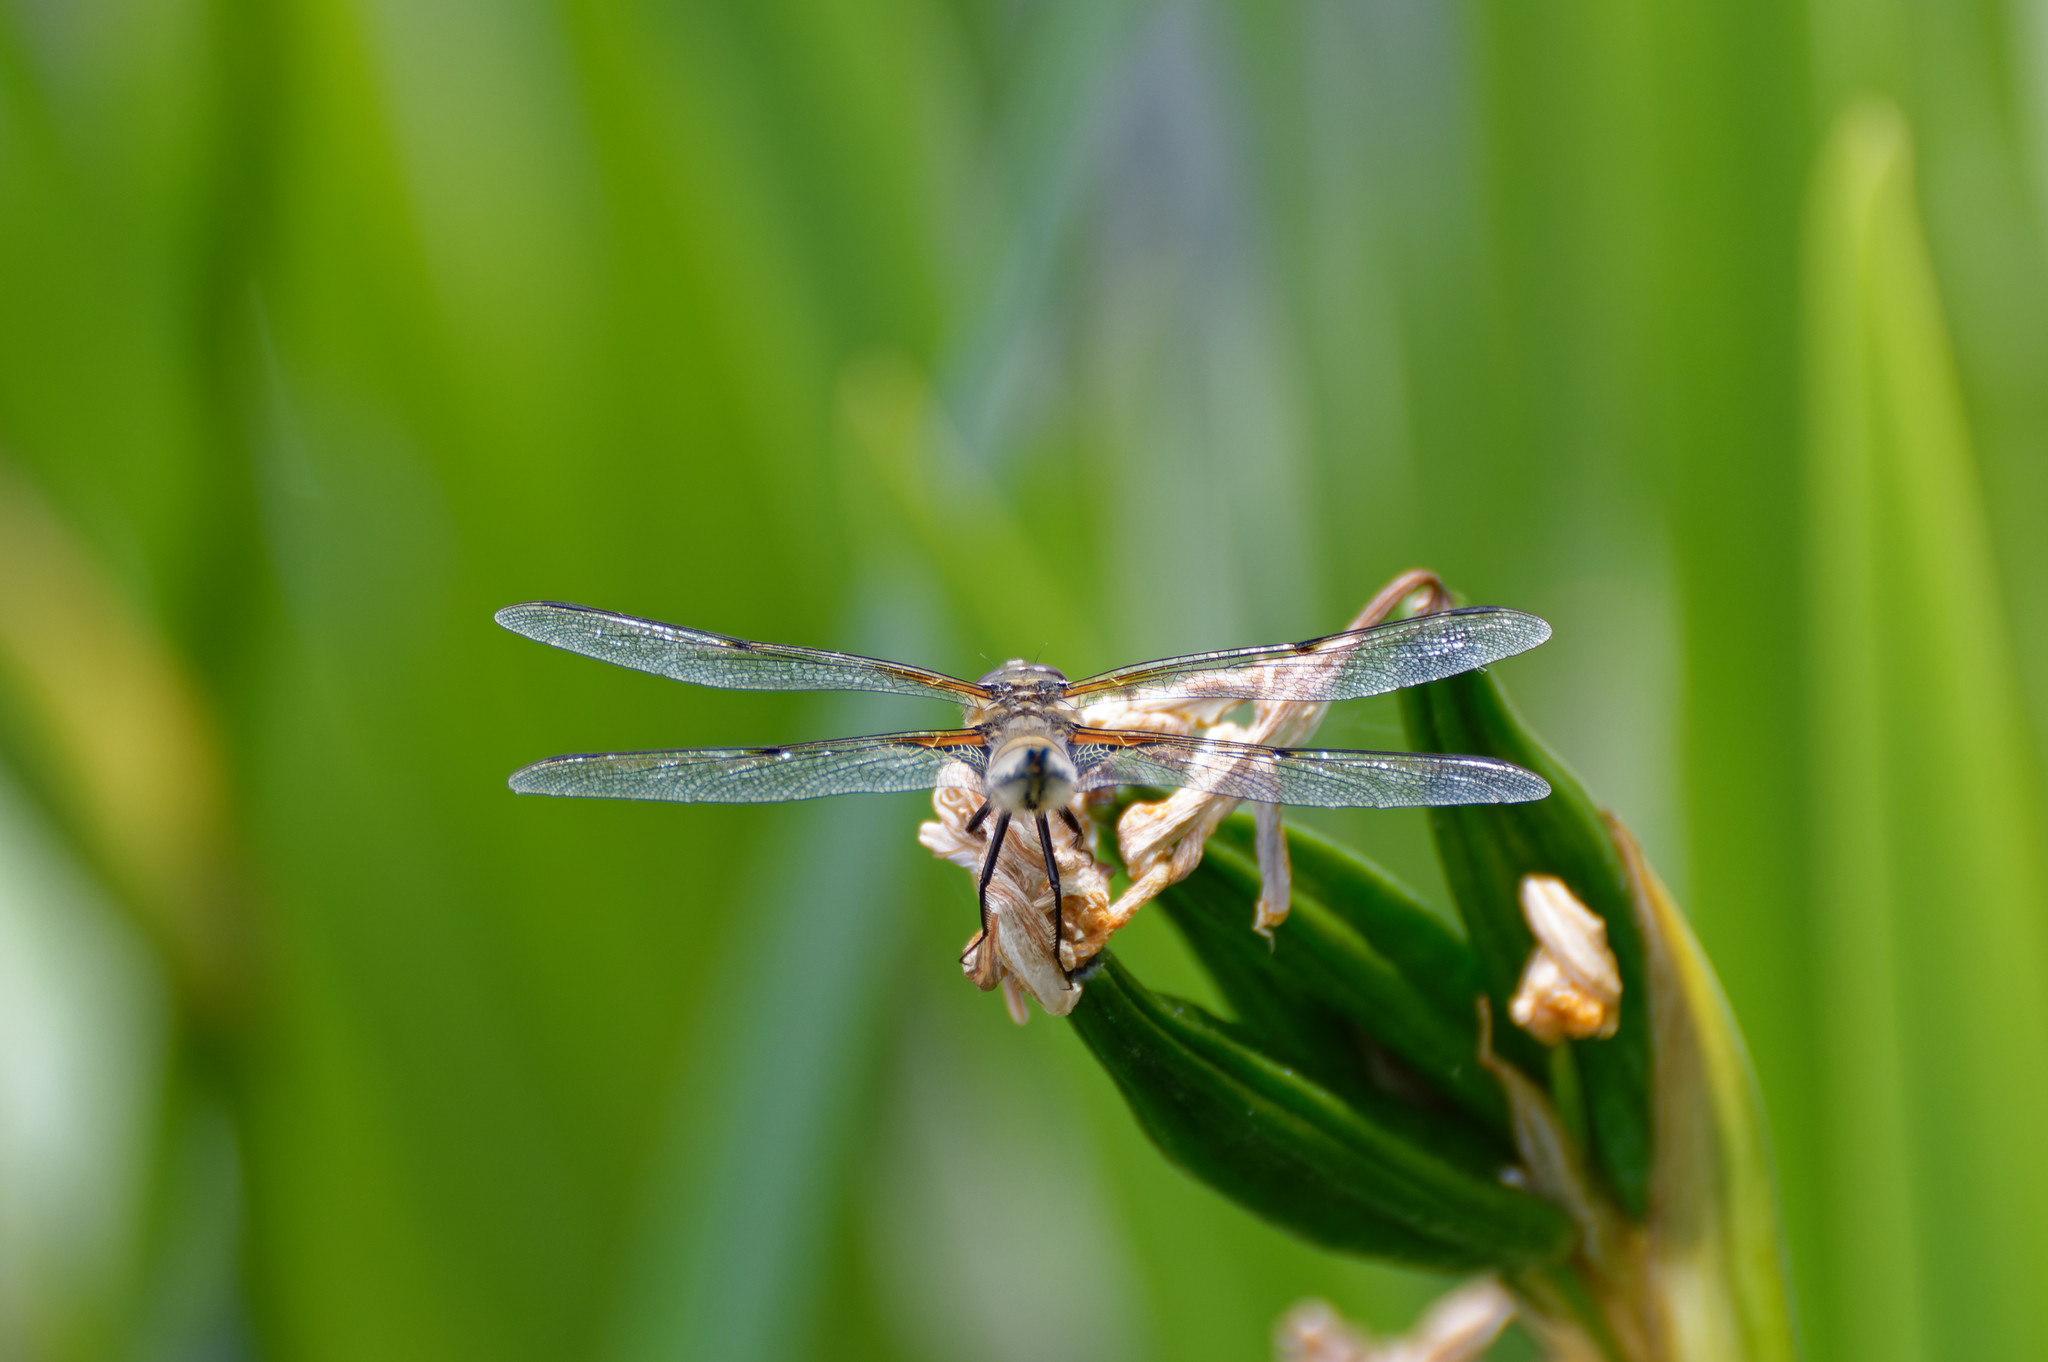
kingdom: Animalia
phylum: Arthropoda
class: Insecta
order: Odonata
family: Libellulidae
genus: Libellula
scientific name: Libellula quadrimaculata
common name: Four-spotted chaser
